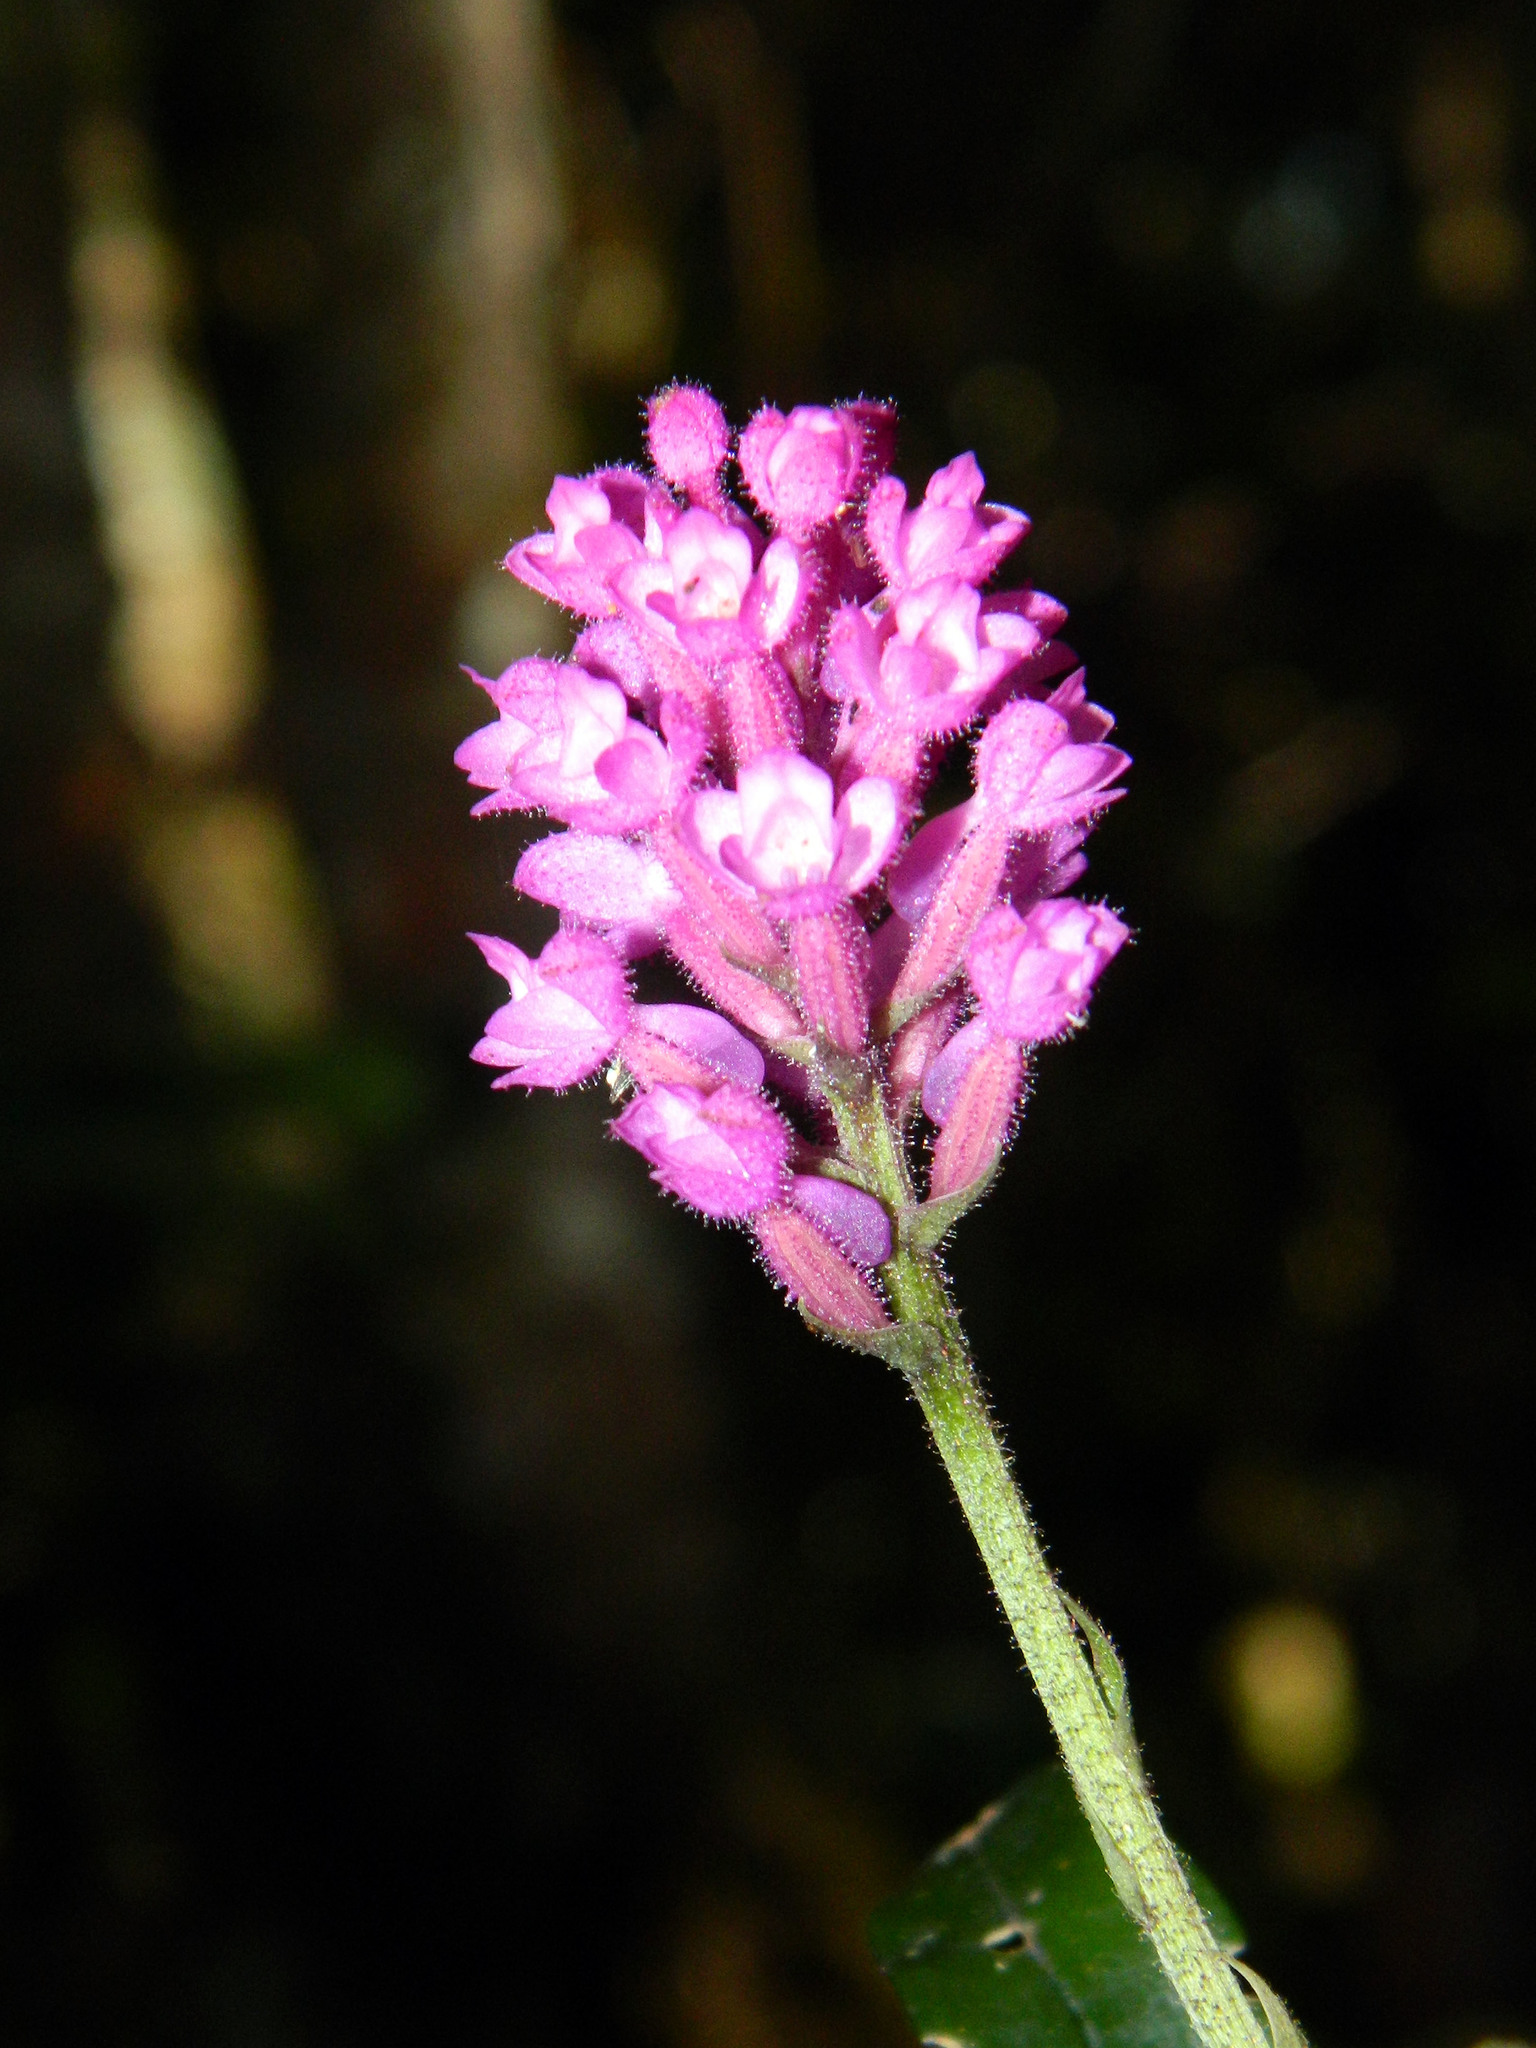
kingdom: Plantae
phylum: Tracheophyta
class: Liliopsida
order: Asparagales
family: Orchidaceae
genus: Cynorkis
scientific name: Cynorkis peyrotii
